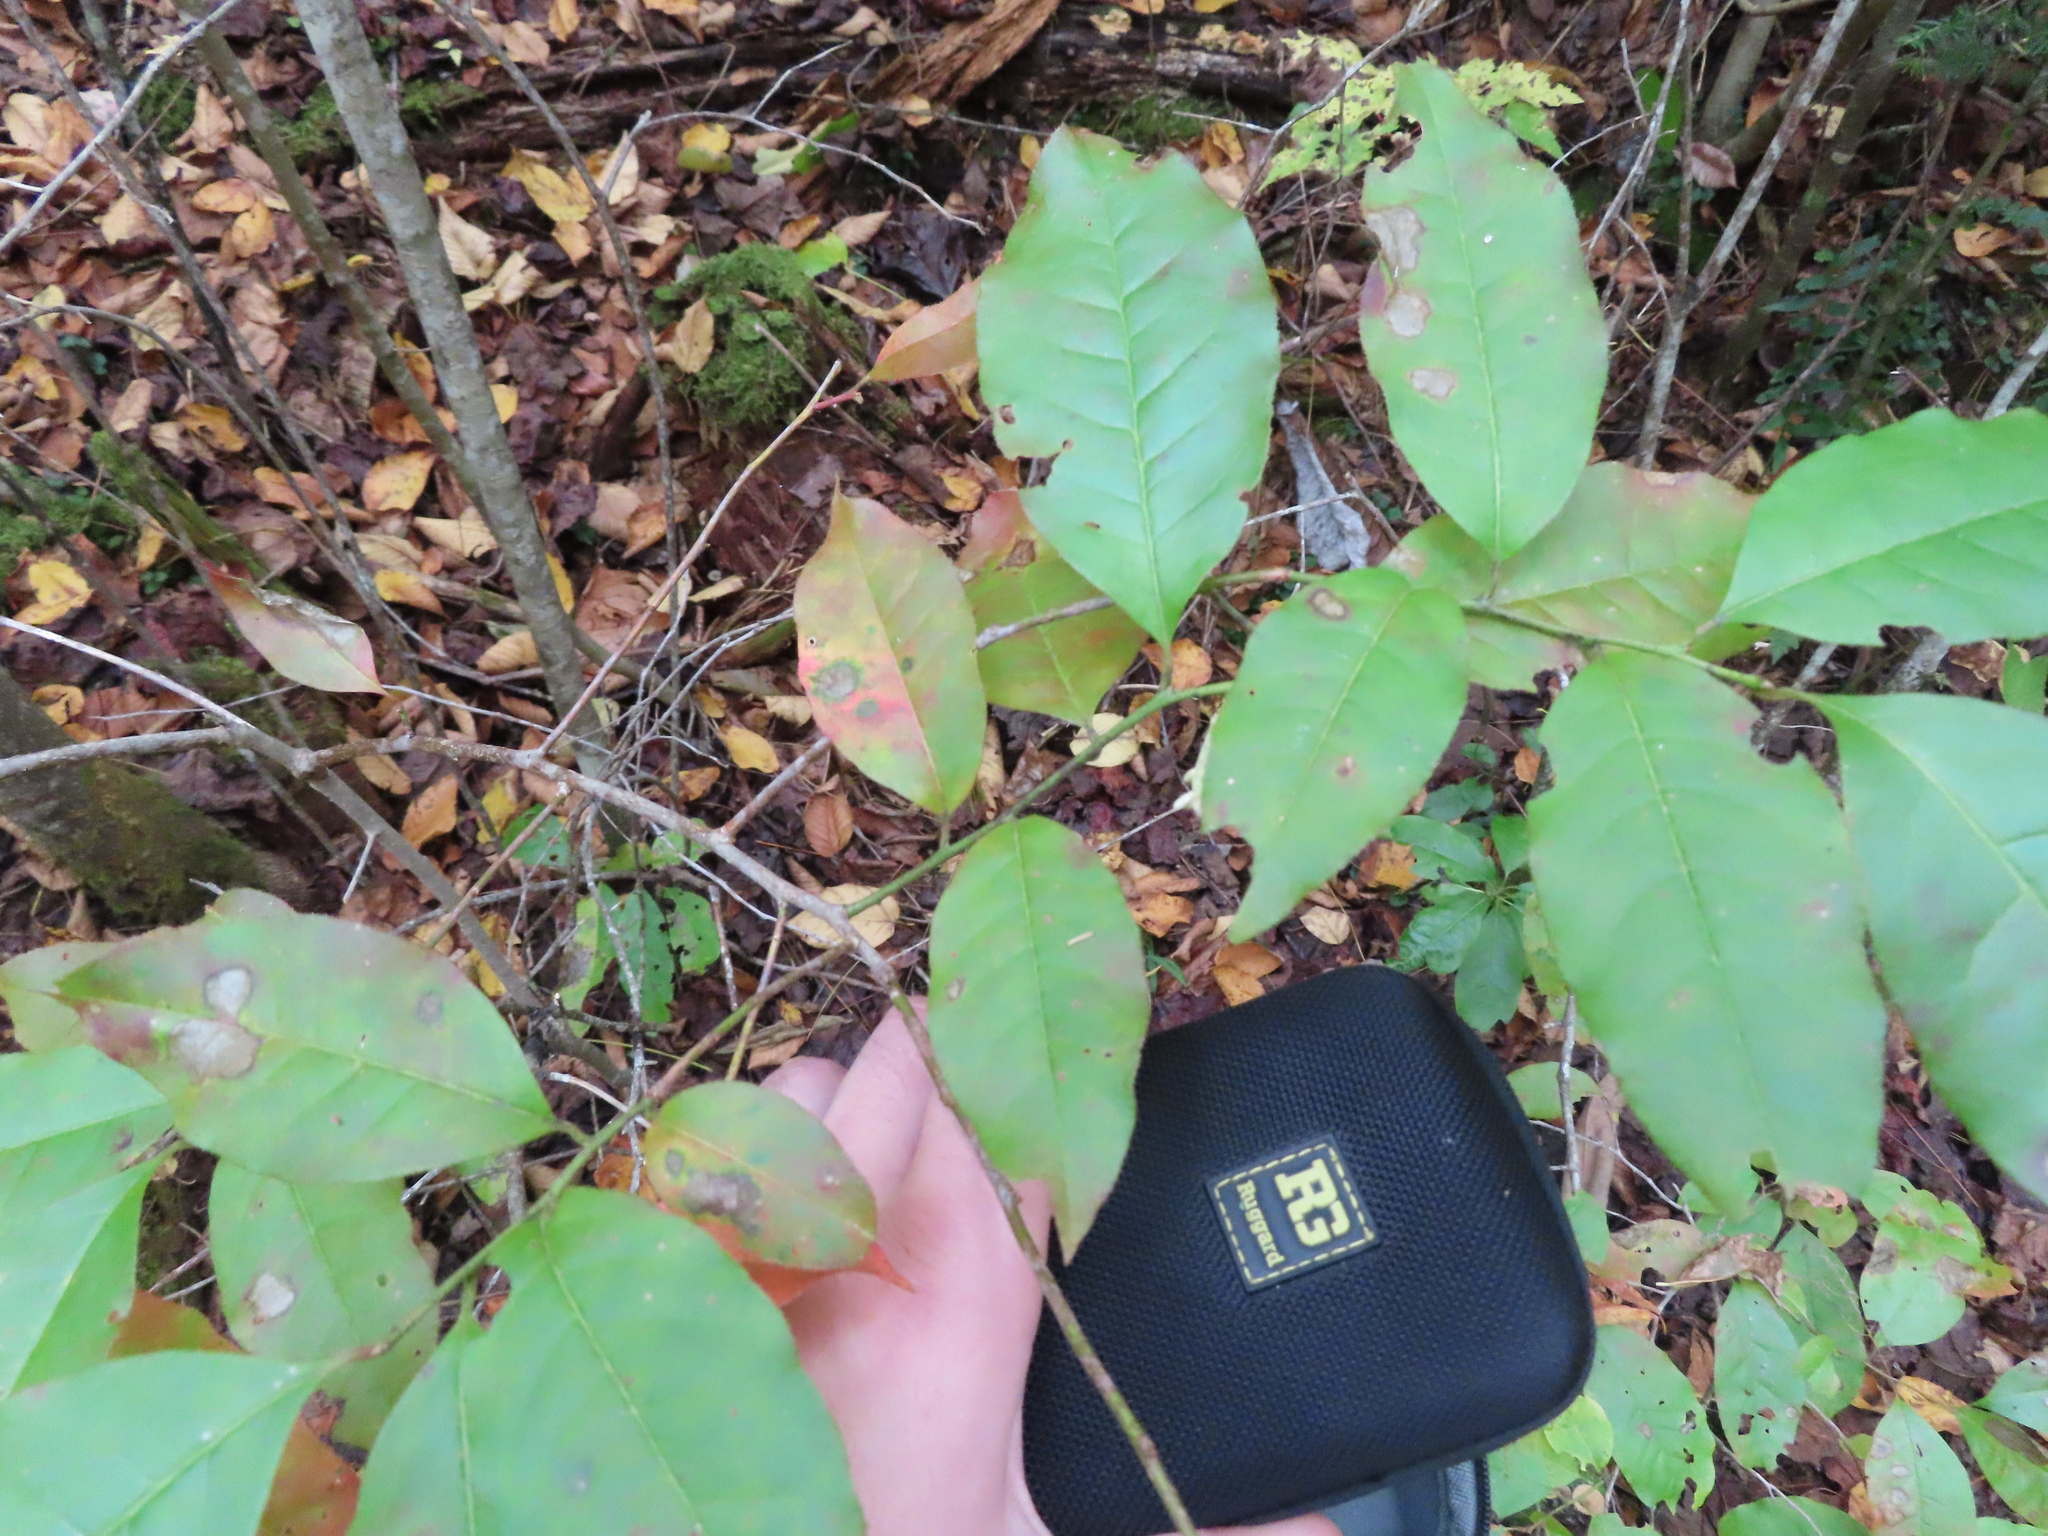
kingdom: Plantae
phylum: Tracheophyta
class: Magnoliopsida
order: Ericales
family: Ericaceae
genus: Oxydendrum
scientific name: Oxydendrum arboreum
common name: Sourwood
